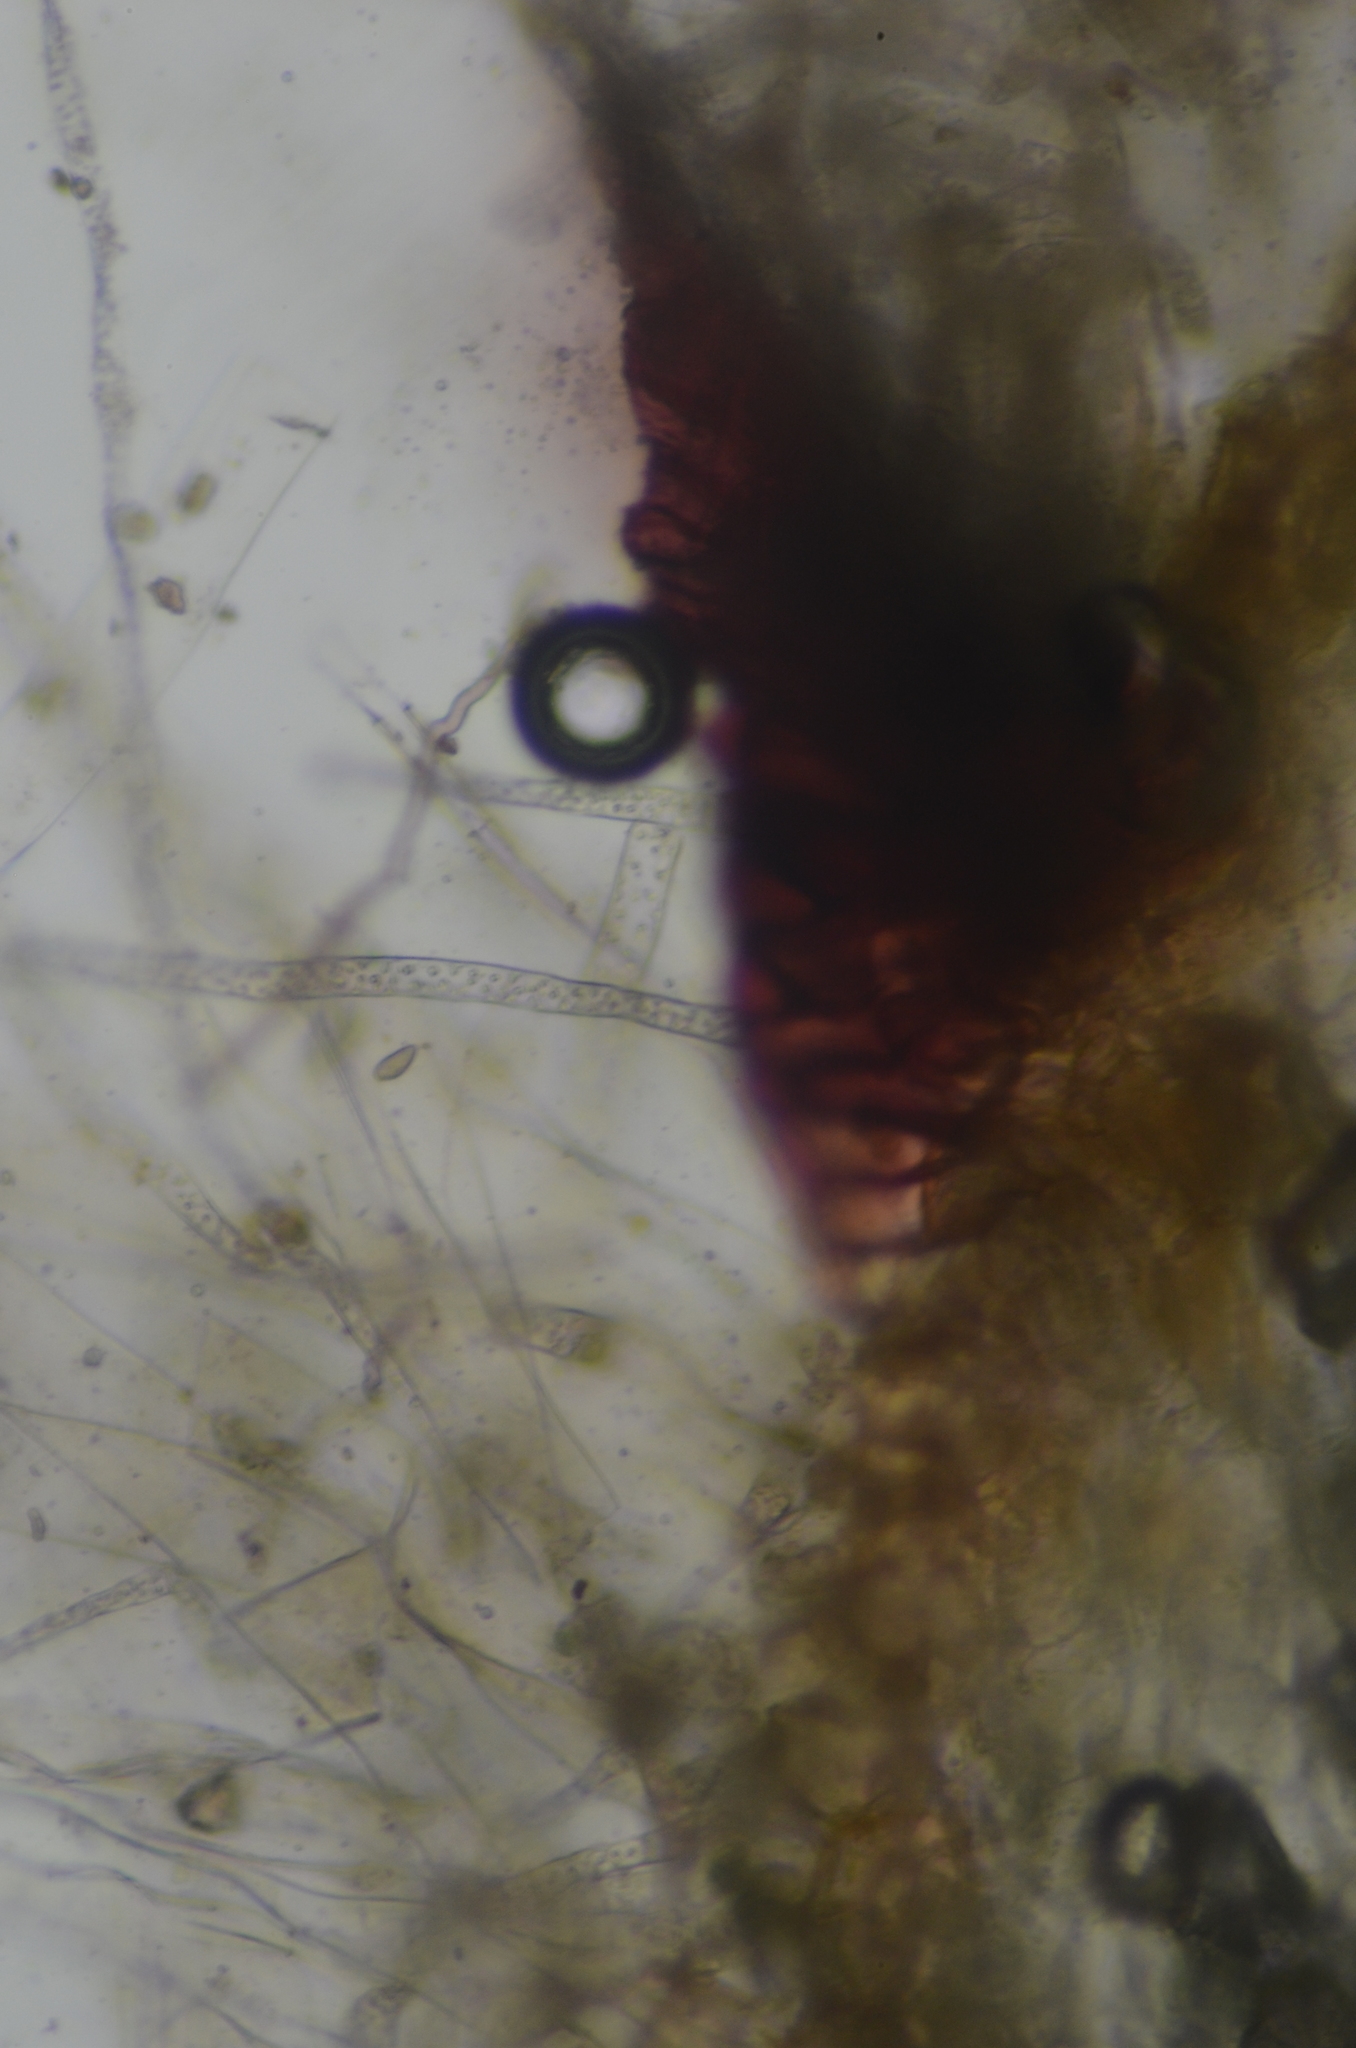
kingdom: Plantae
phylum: Marchantiophyta
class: Marchantiopsida
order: Marchantiales
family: Targioniaceae
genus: Targionia
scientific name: Targionia hypophylla
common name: Orobus-seed liverwort
